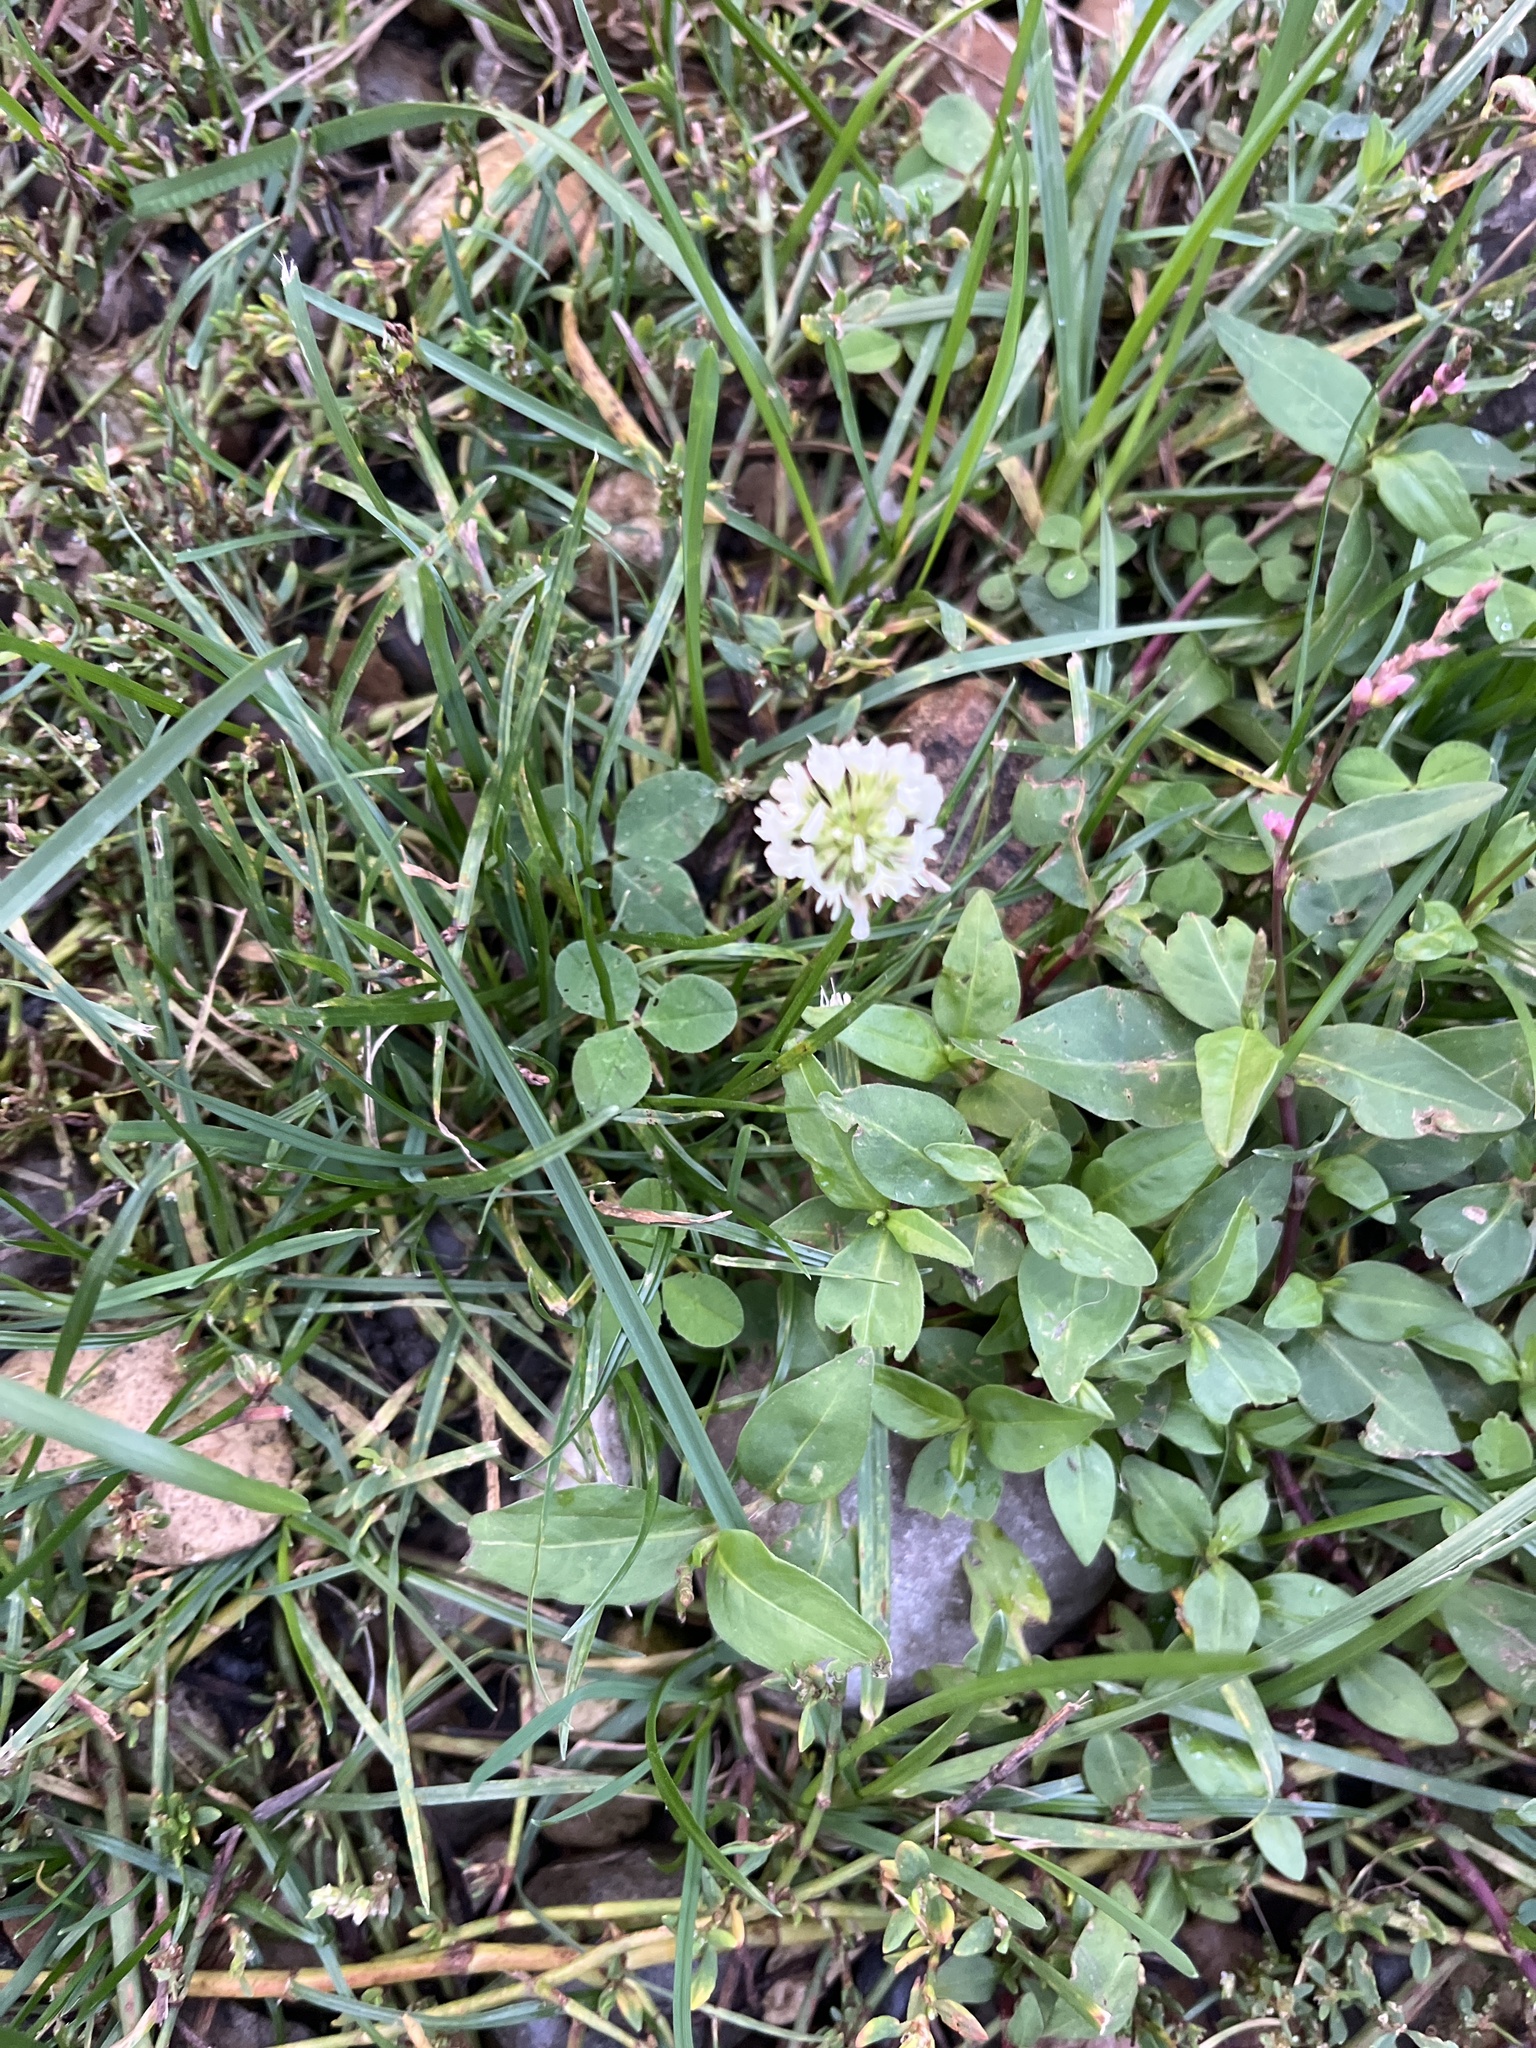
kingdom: Plantae
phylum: Tracheophyta
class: Magnoliopsida
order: Fabales
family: Fabaceae
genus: Trifolium
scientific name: Trifolium repens
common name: White clover
